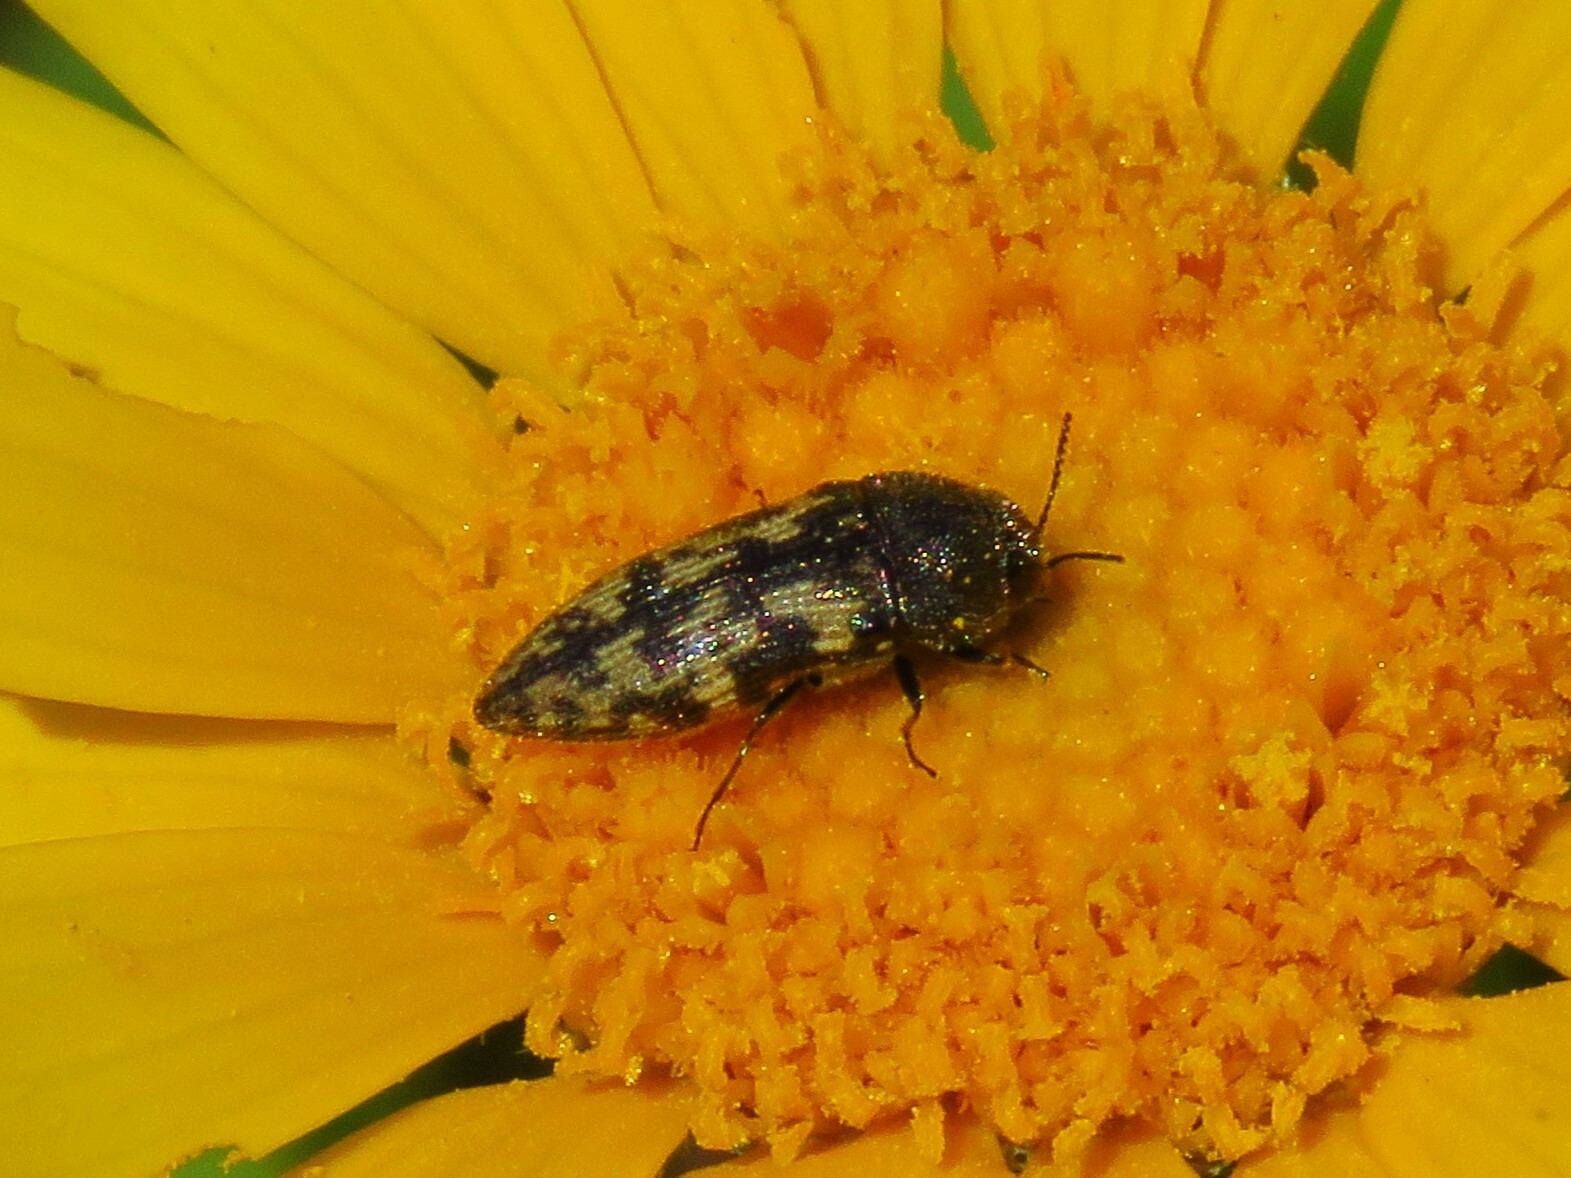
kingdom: Animalia
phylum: Arthropoda
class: Insecta
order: Coleoptera
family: Buprestidae
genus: Acmaeodera
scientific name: Acmaeodera neglecta
